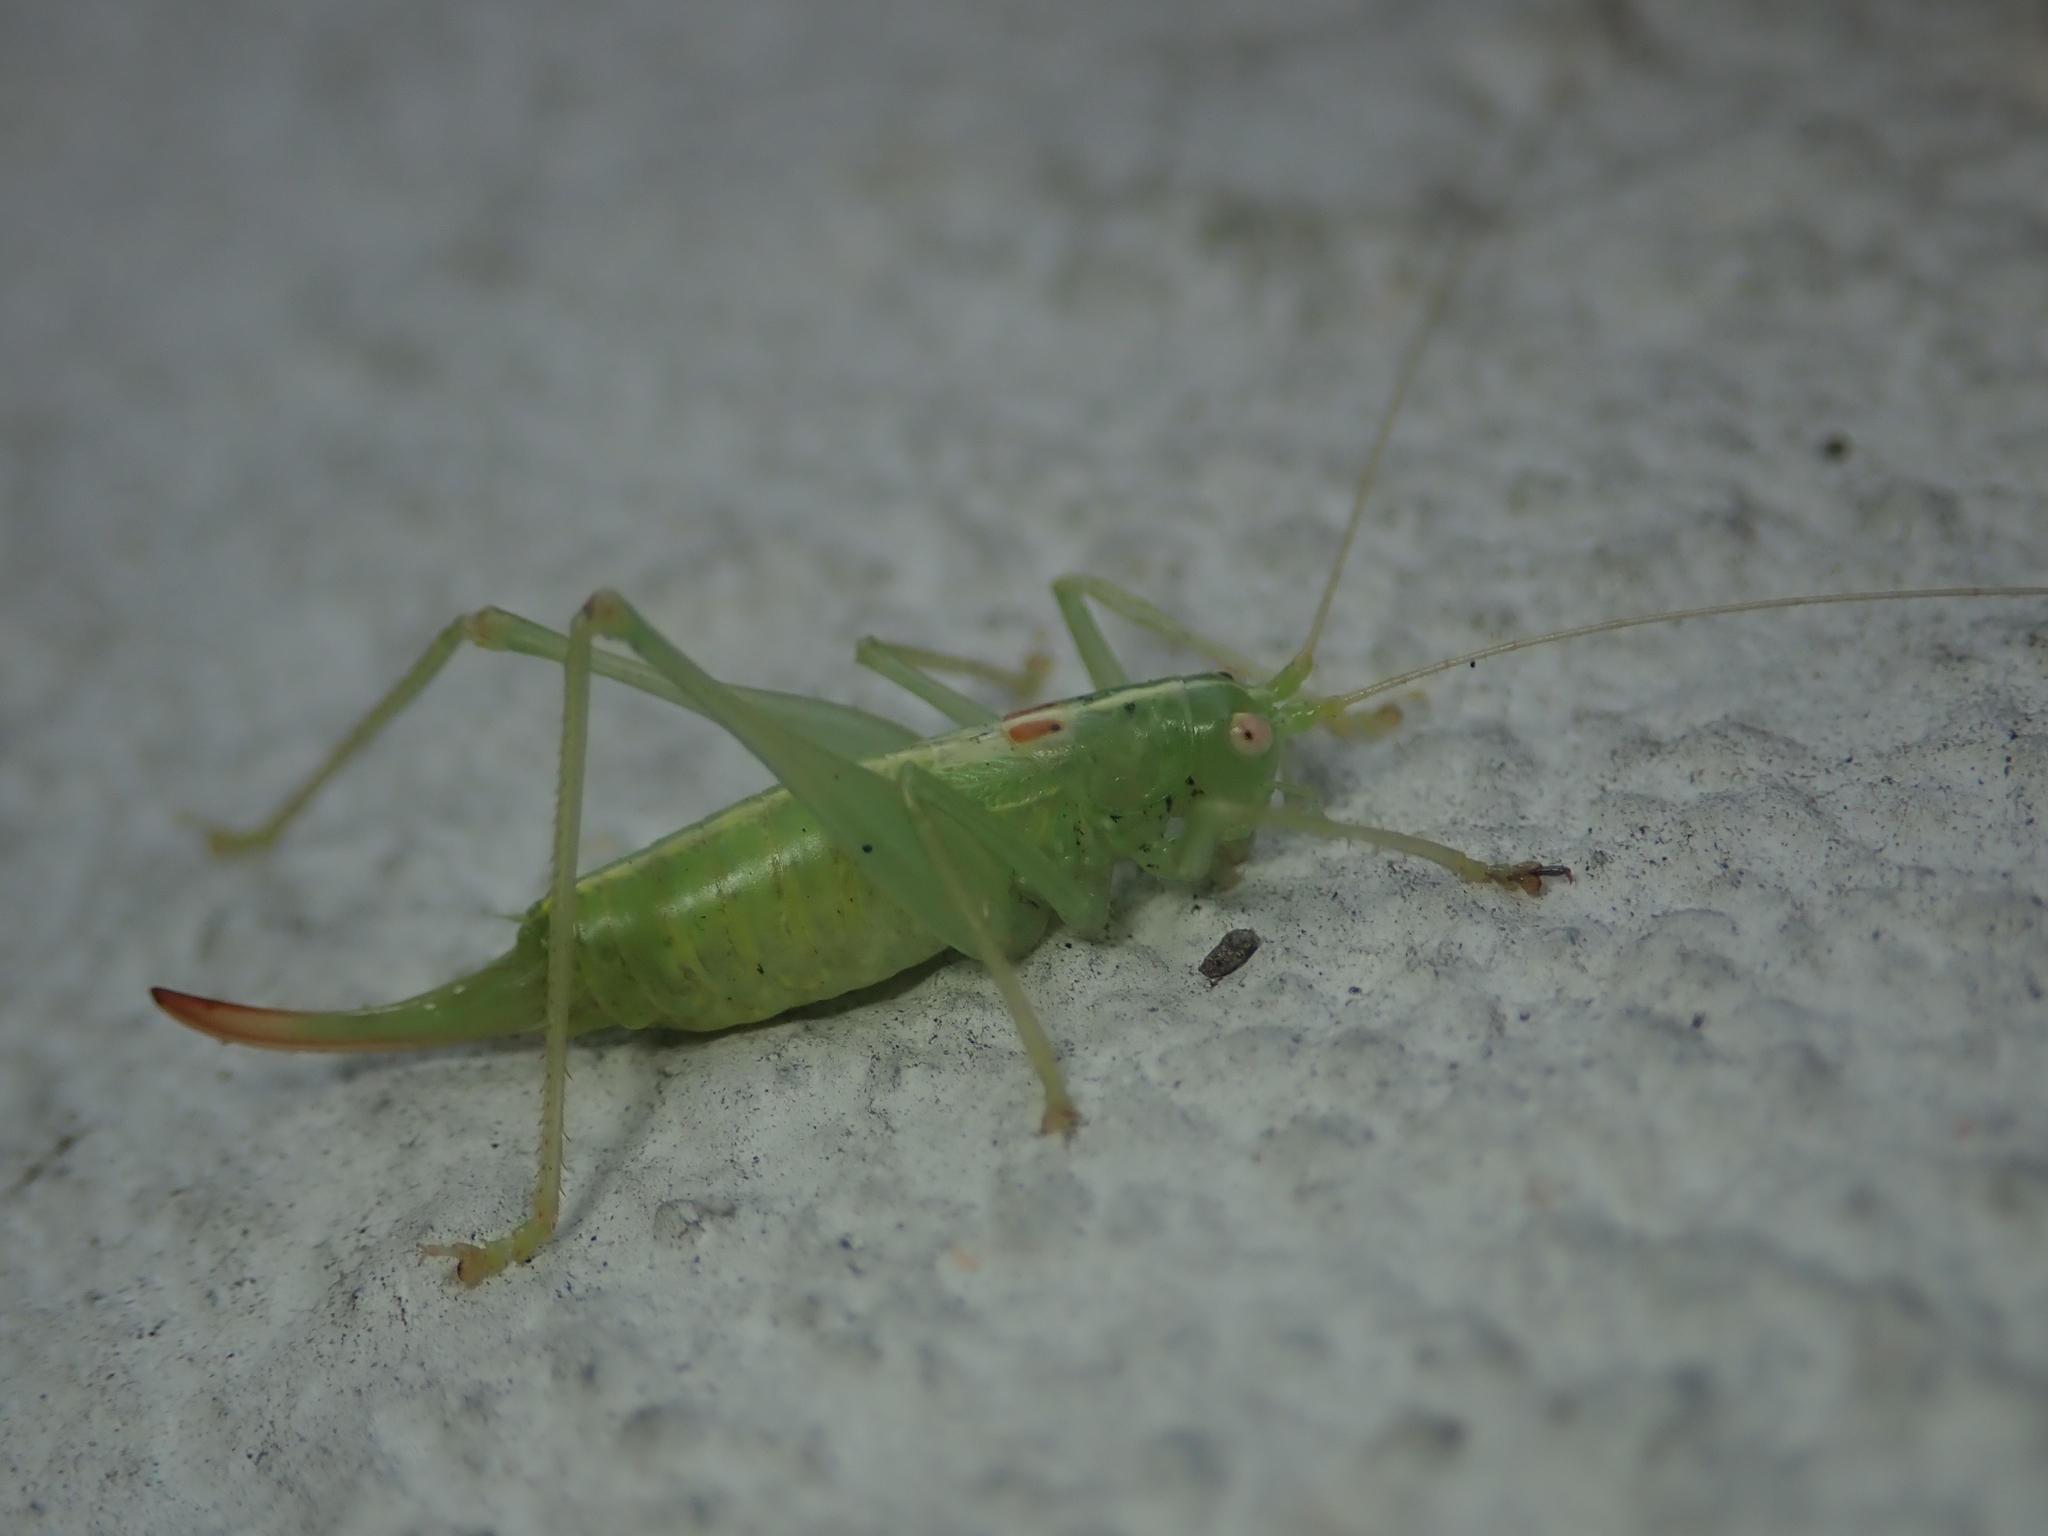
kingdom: Animalia
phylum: Arthropoda
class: Insecta
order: Orthoptera
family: Tettigoniidae
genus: Meconema
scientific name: Meconema meridionale
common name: Southern oak bush-cricket
